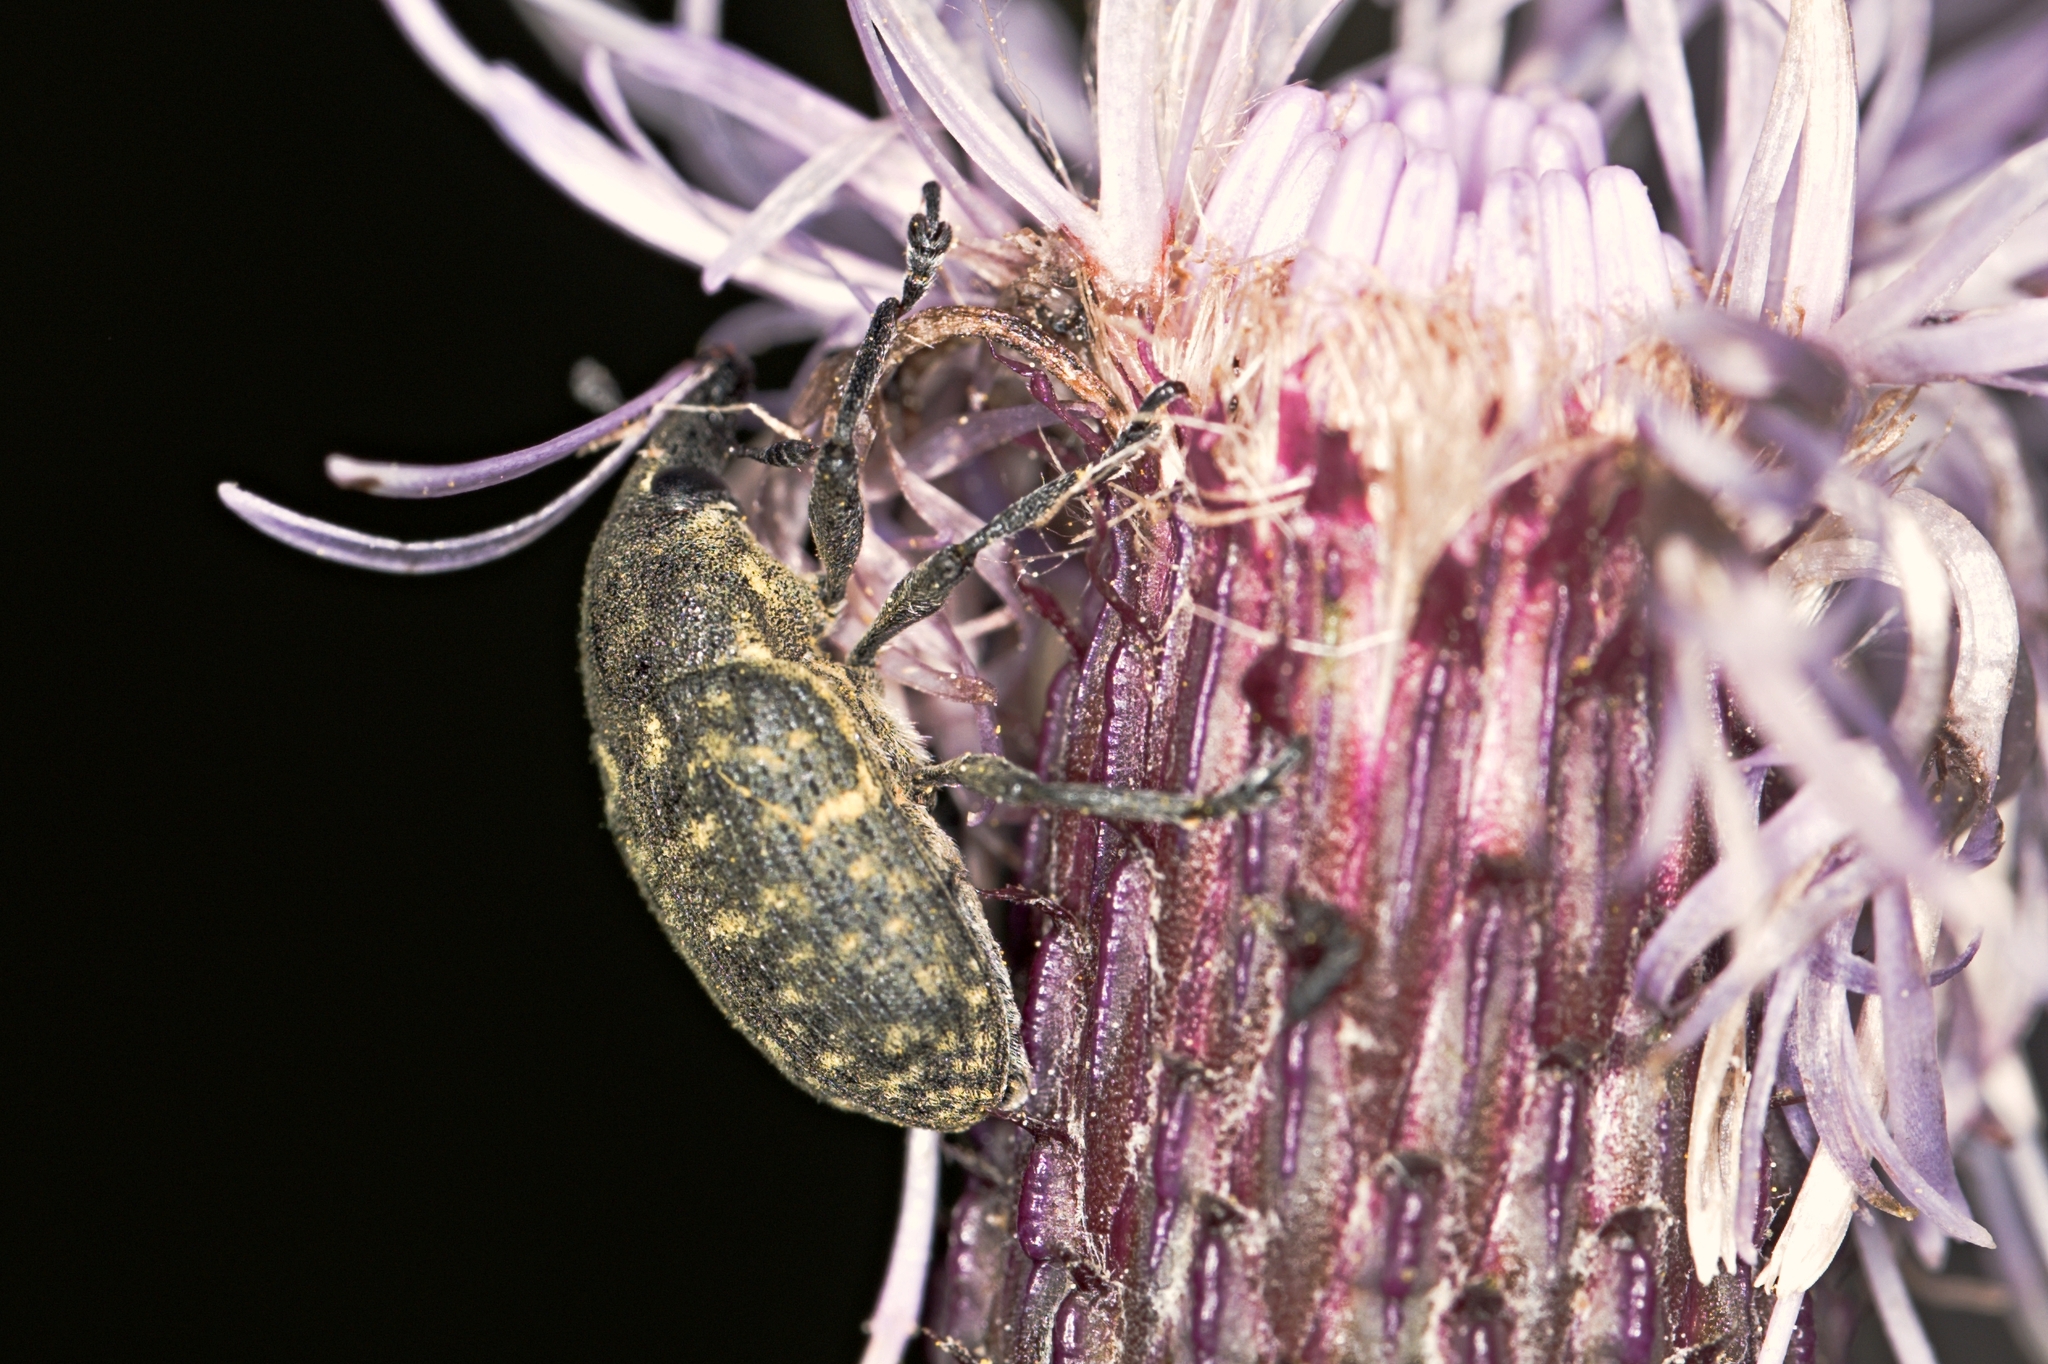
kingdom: Animalia
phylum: Arthropoda
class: Insecta
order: Coleoptera
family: Curculionidae
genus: Larinus
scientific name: Larinus turbinatus
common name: Weevil
